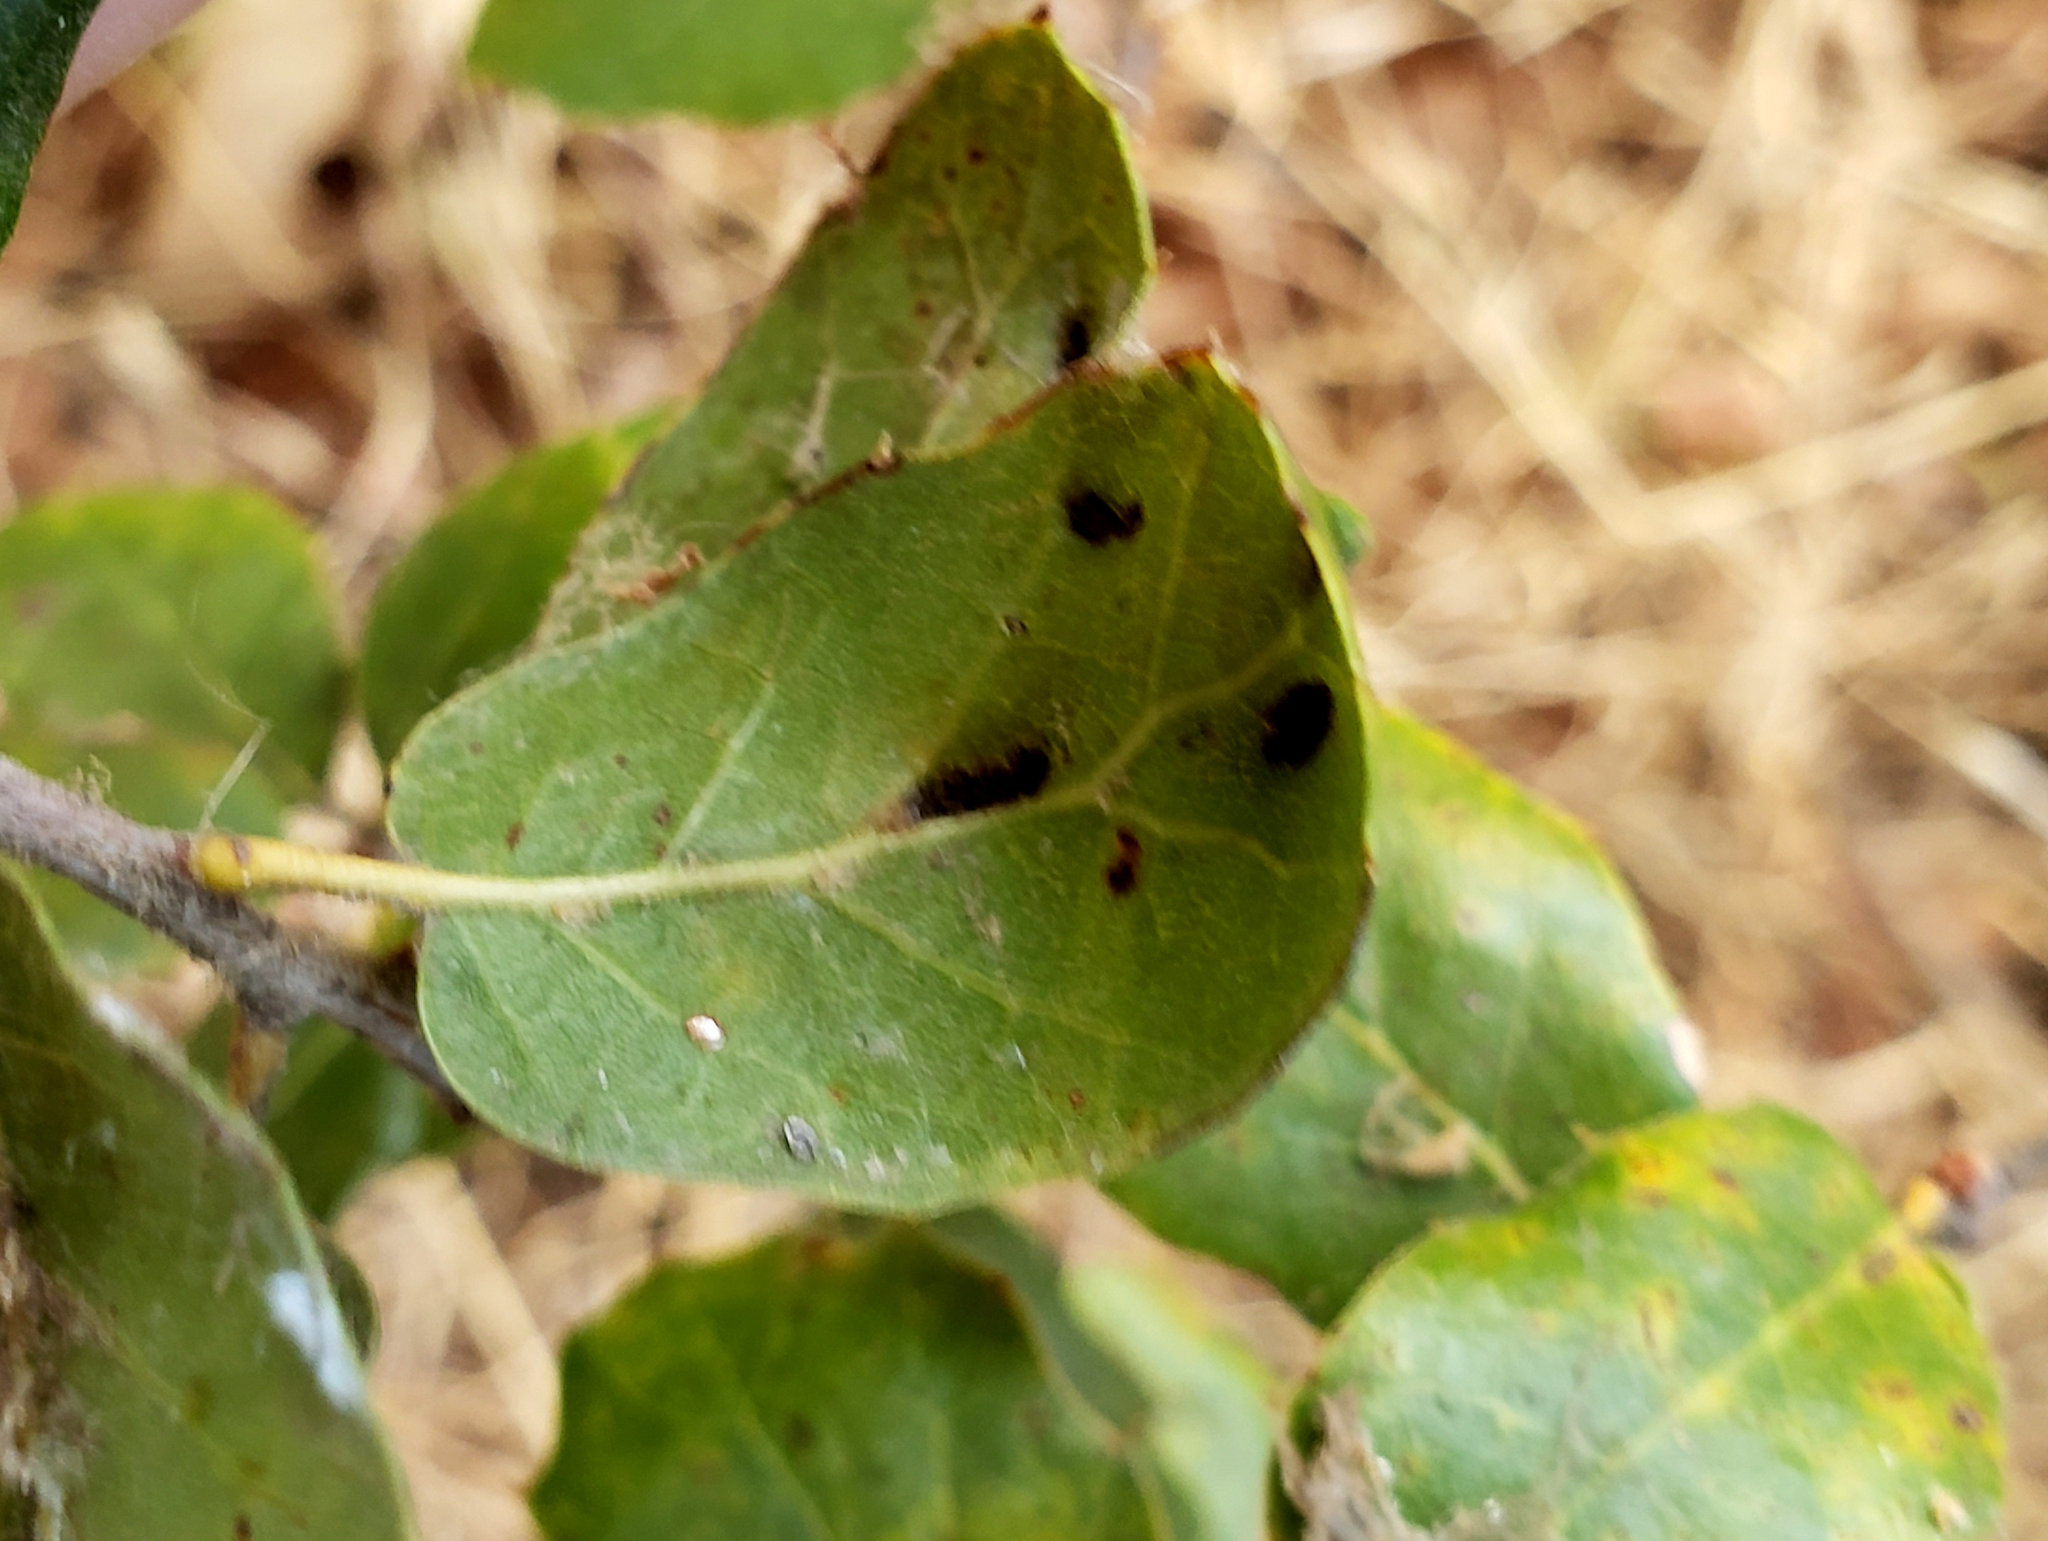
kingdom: Animalia
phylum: Arthropoda
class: Arachnida
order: Trombidiformes
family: Eriophyidae
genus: Aceria
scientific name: Aceria
